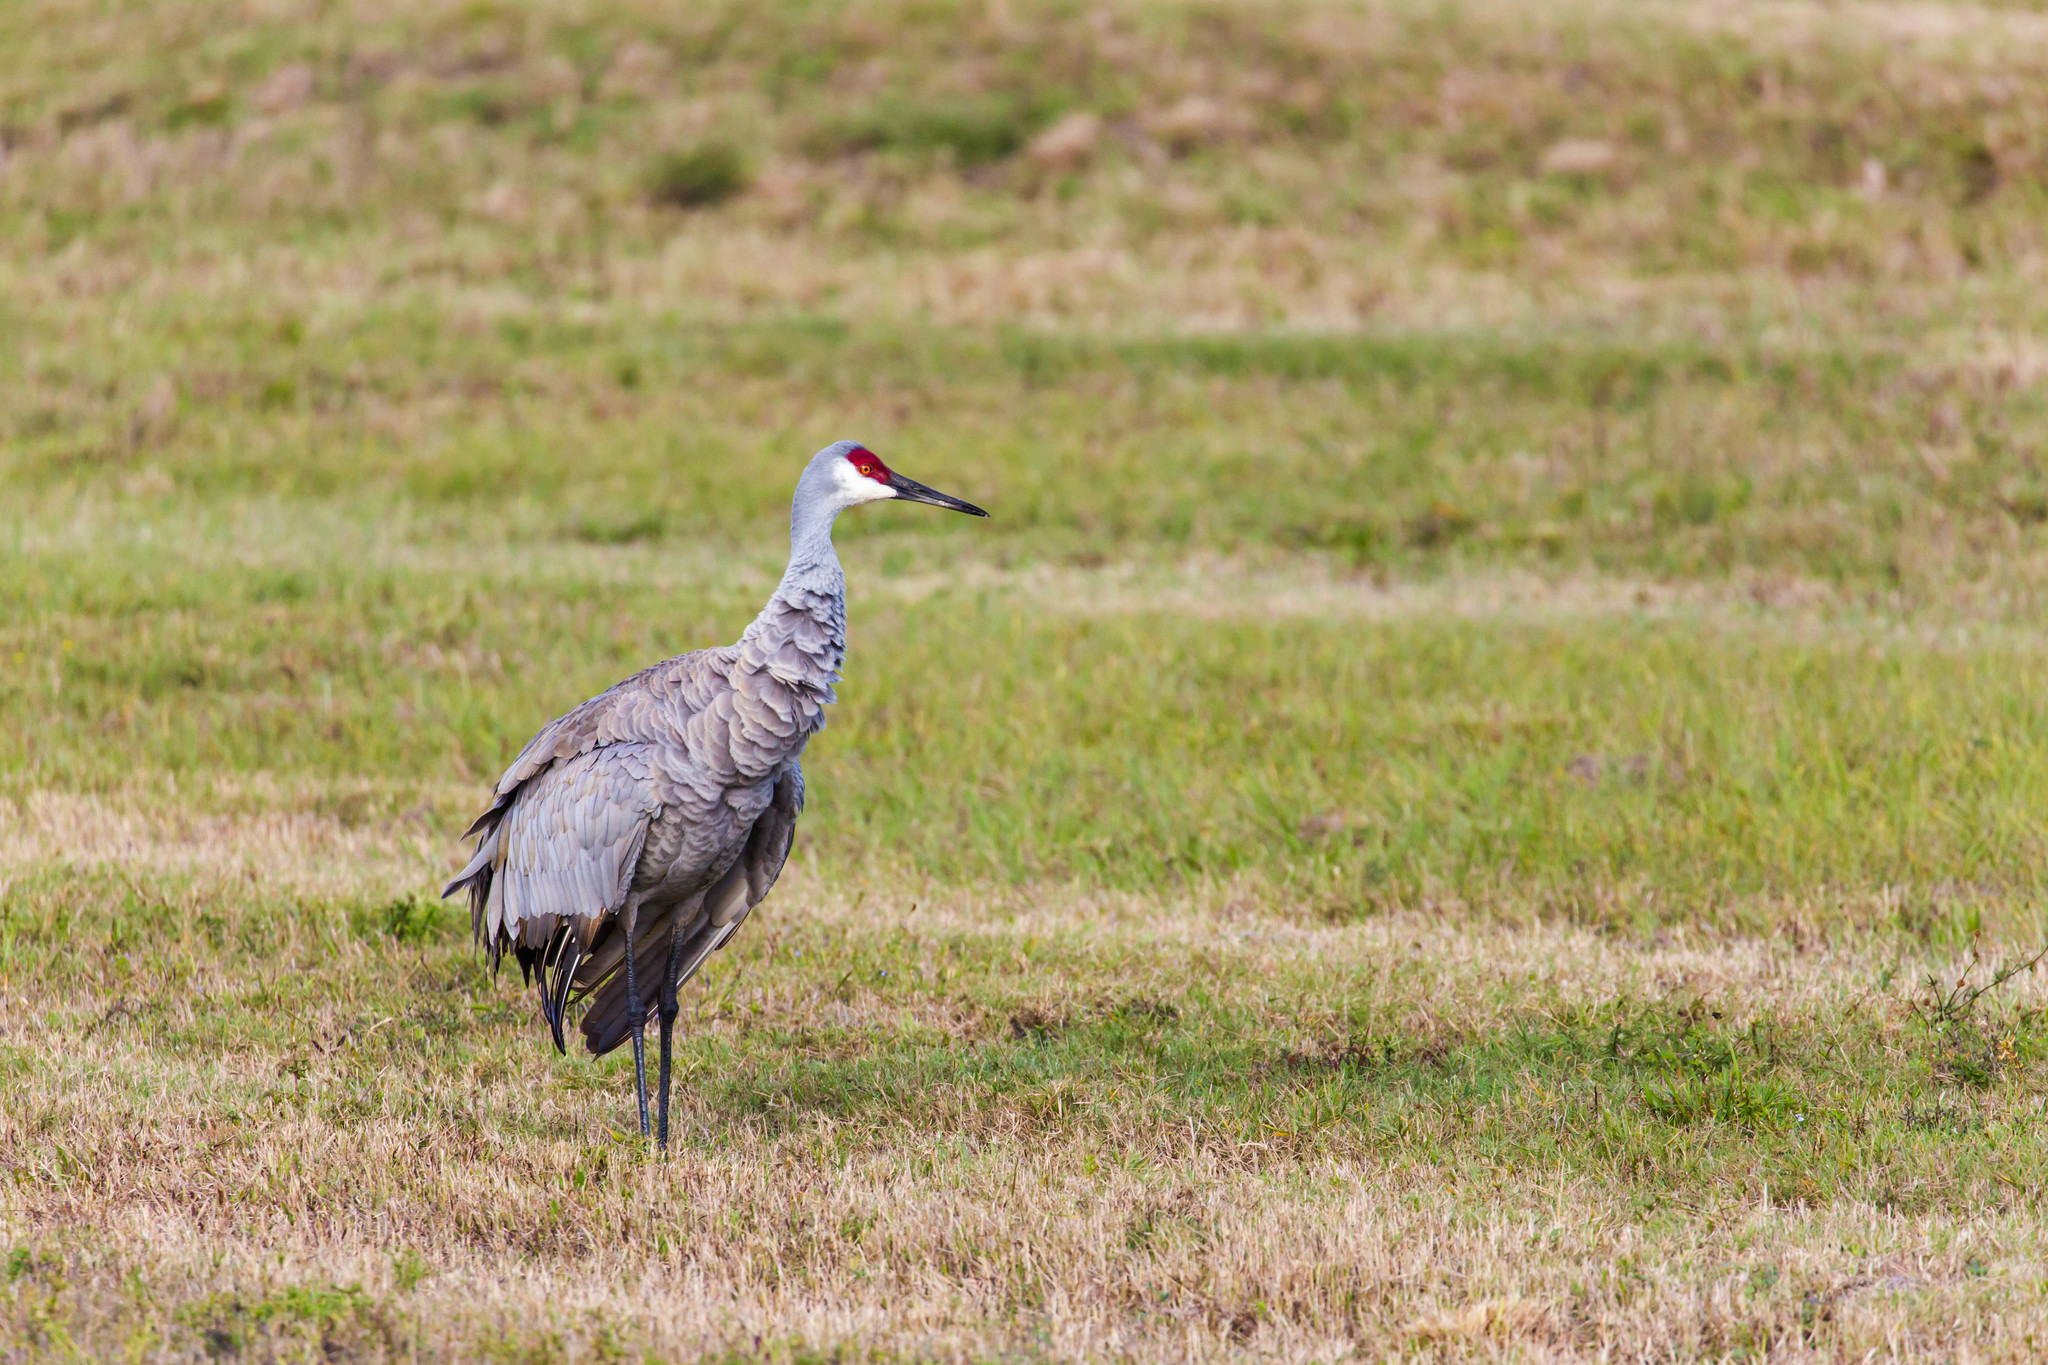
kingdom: Animalia
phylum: Chordata
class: Aves
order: Gruiformes
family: Gruidae
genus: Grus
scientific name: Grus canadensis
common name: Sandhill crane
